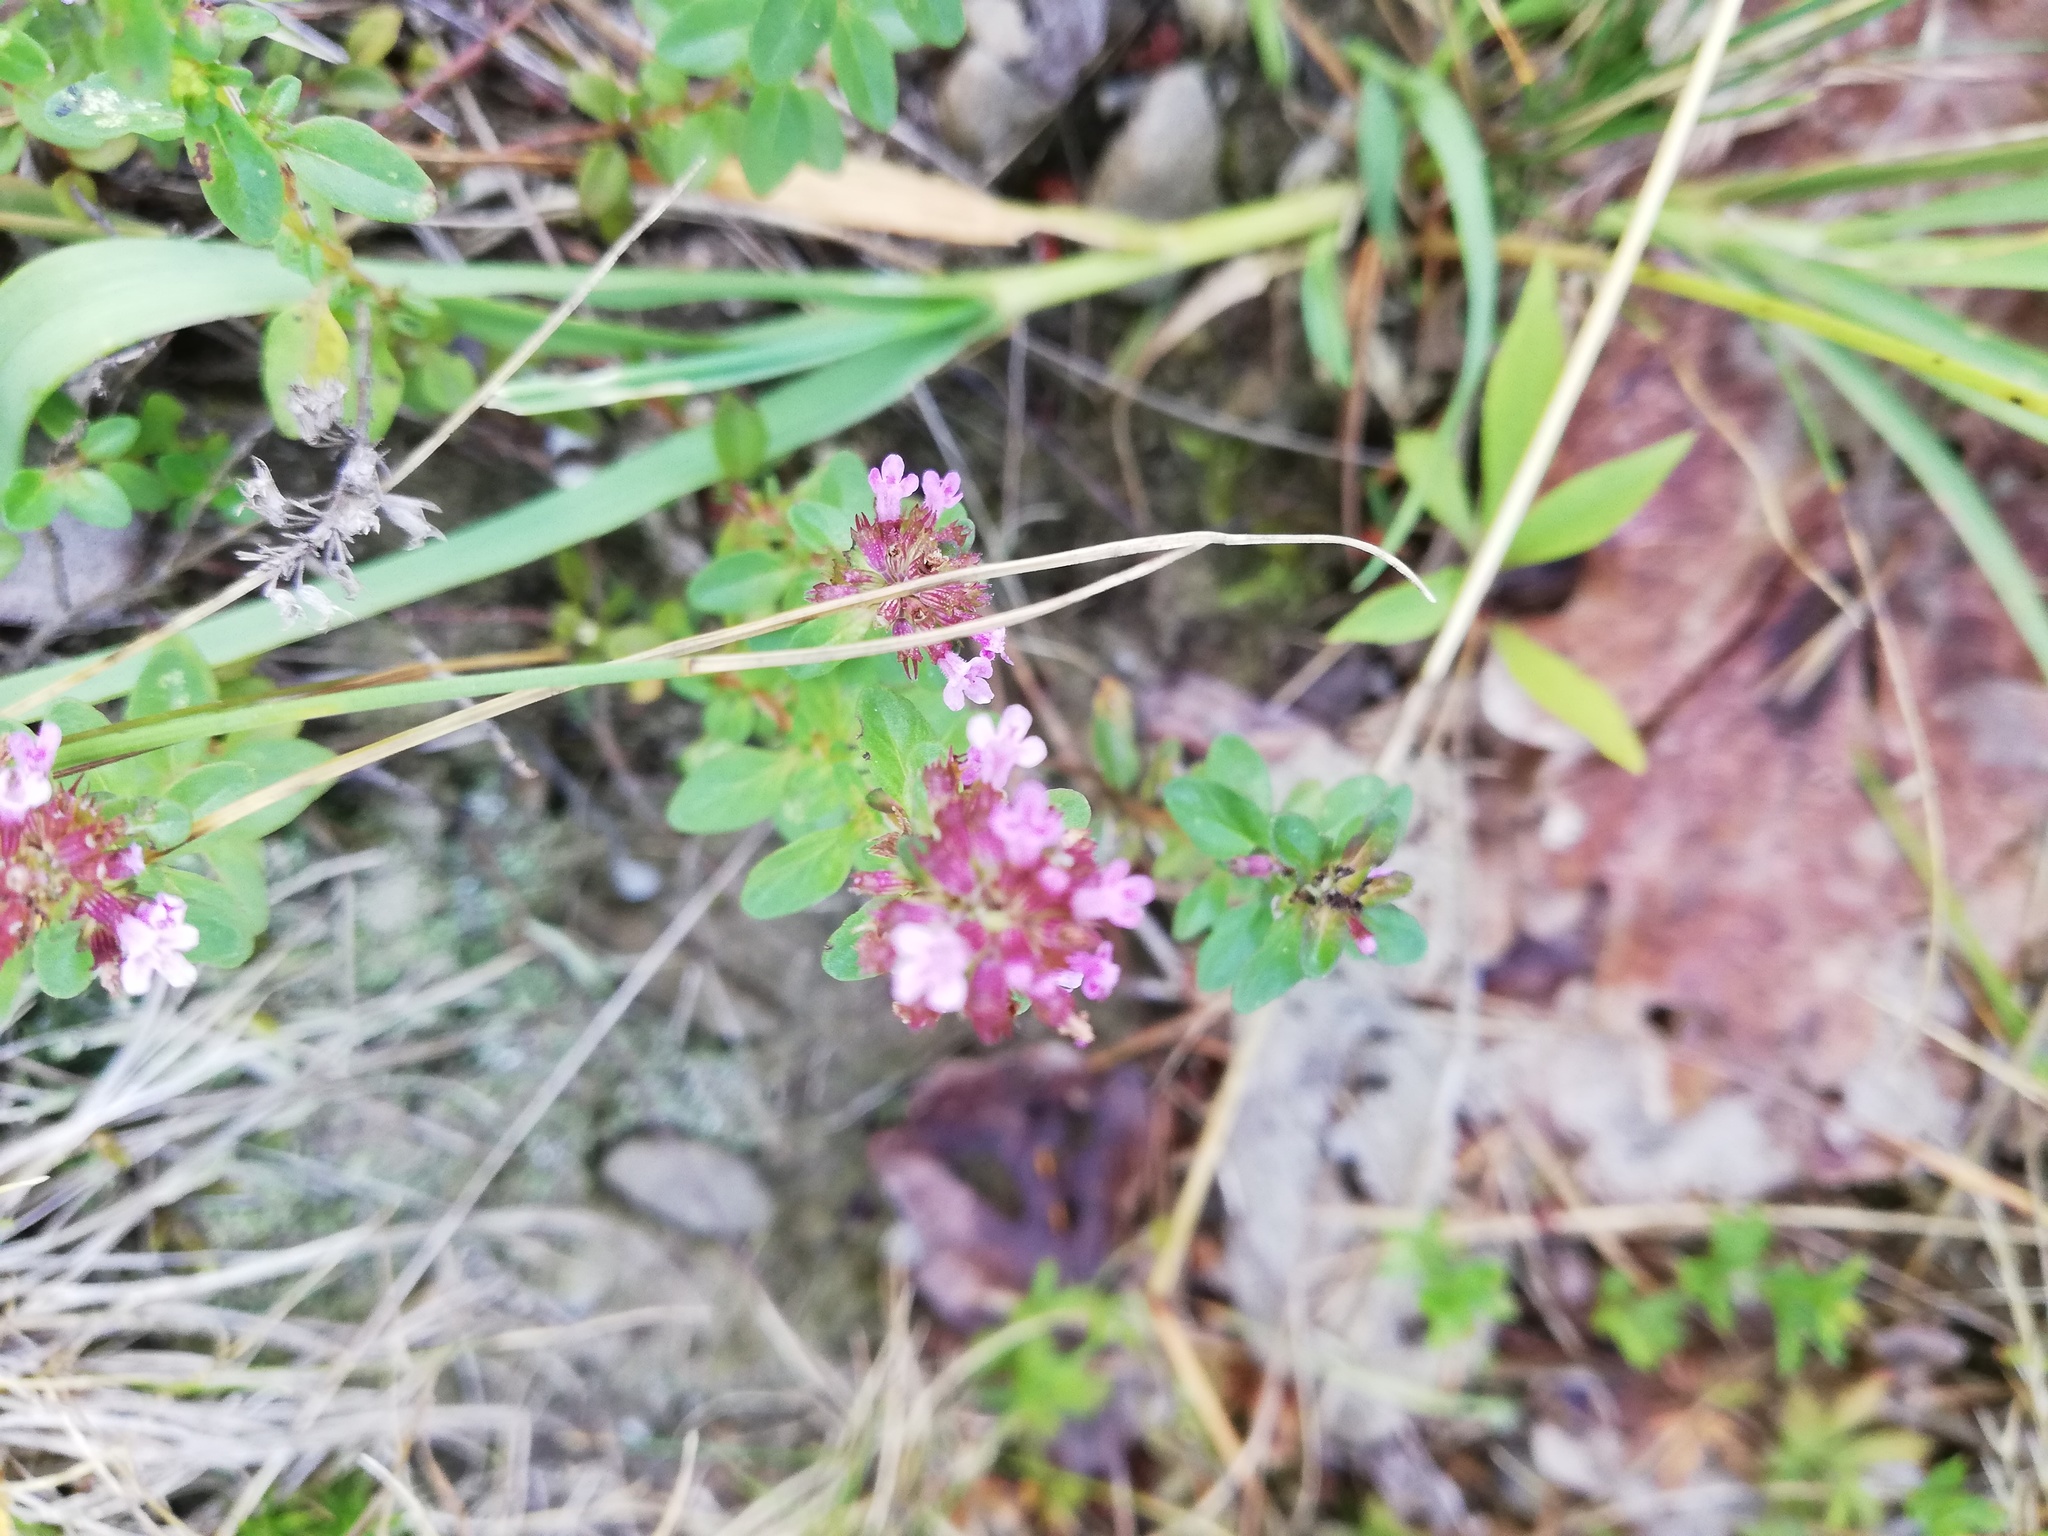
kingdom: Plantae
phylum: Tracheophyta
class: Magnoliopsida
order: Lamiales
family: Lamiaceae
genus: Thymus
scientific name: Thymus pulegioides
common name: Large thyme
